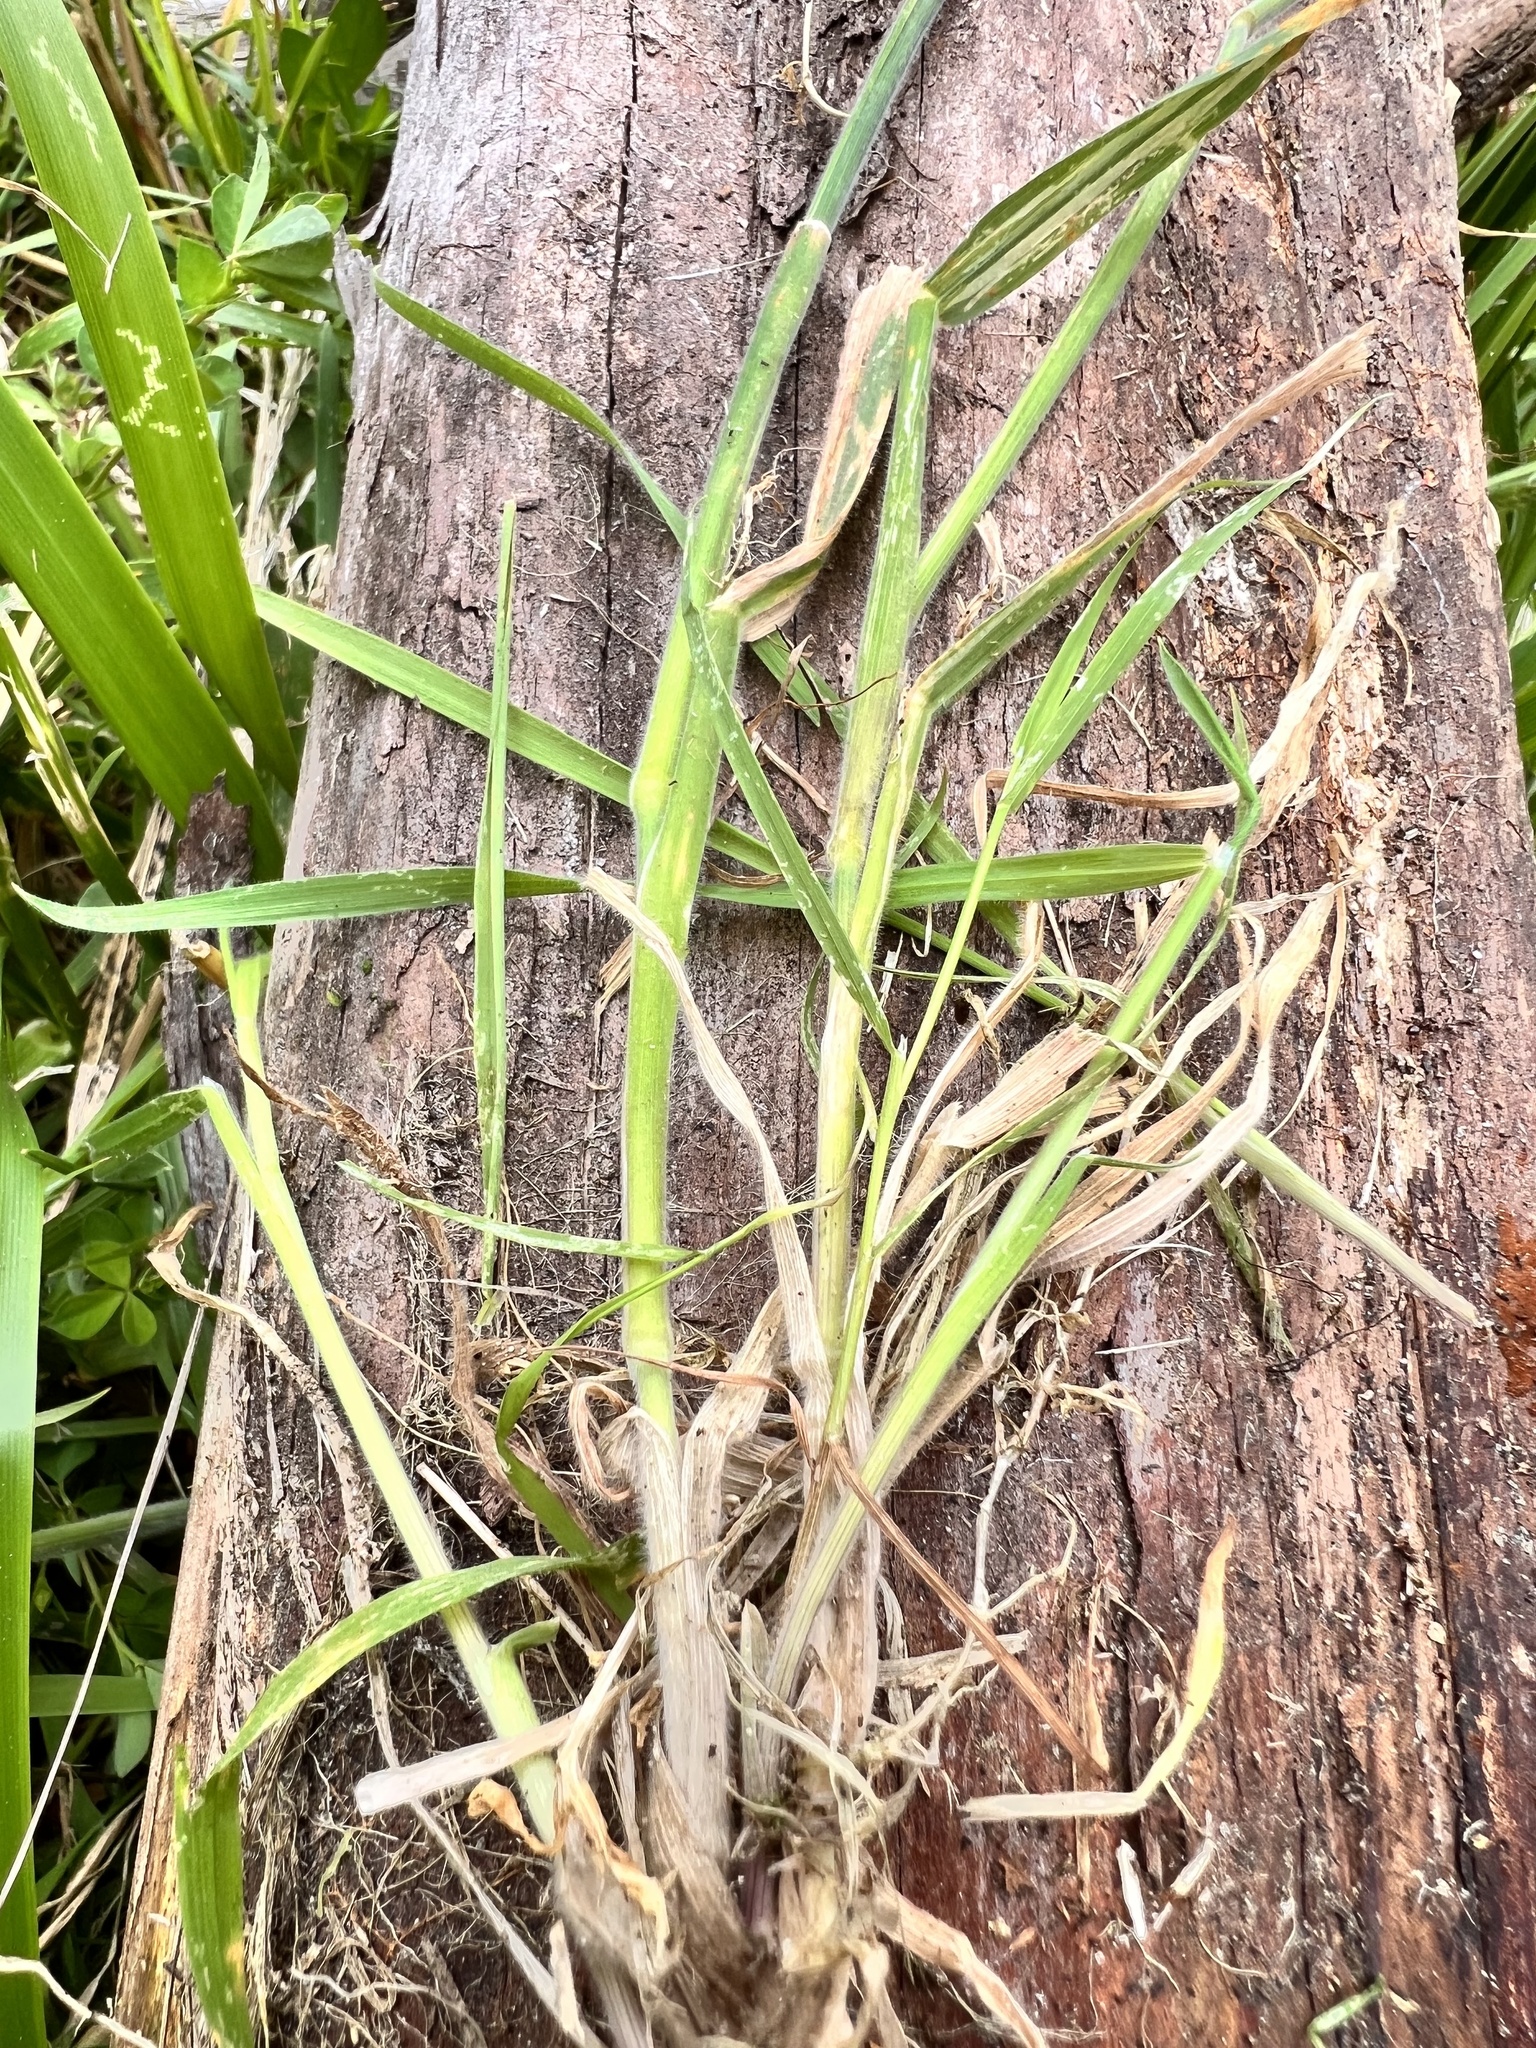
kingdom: Plantae
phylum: Tracheophyta
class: Liliopsida
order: Poales
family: Poaceae
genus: Cenchrus
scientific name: Cenchrus clandestinus
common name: Kikuyugrass
